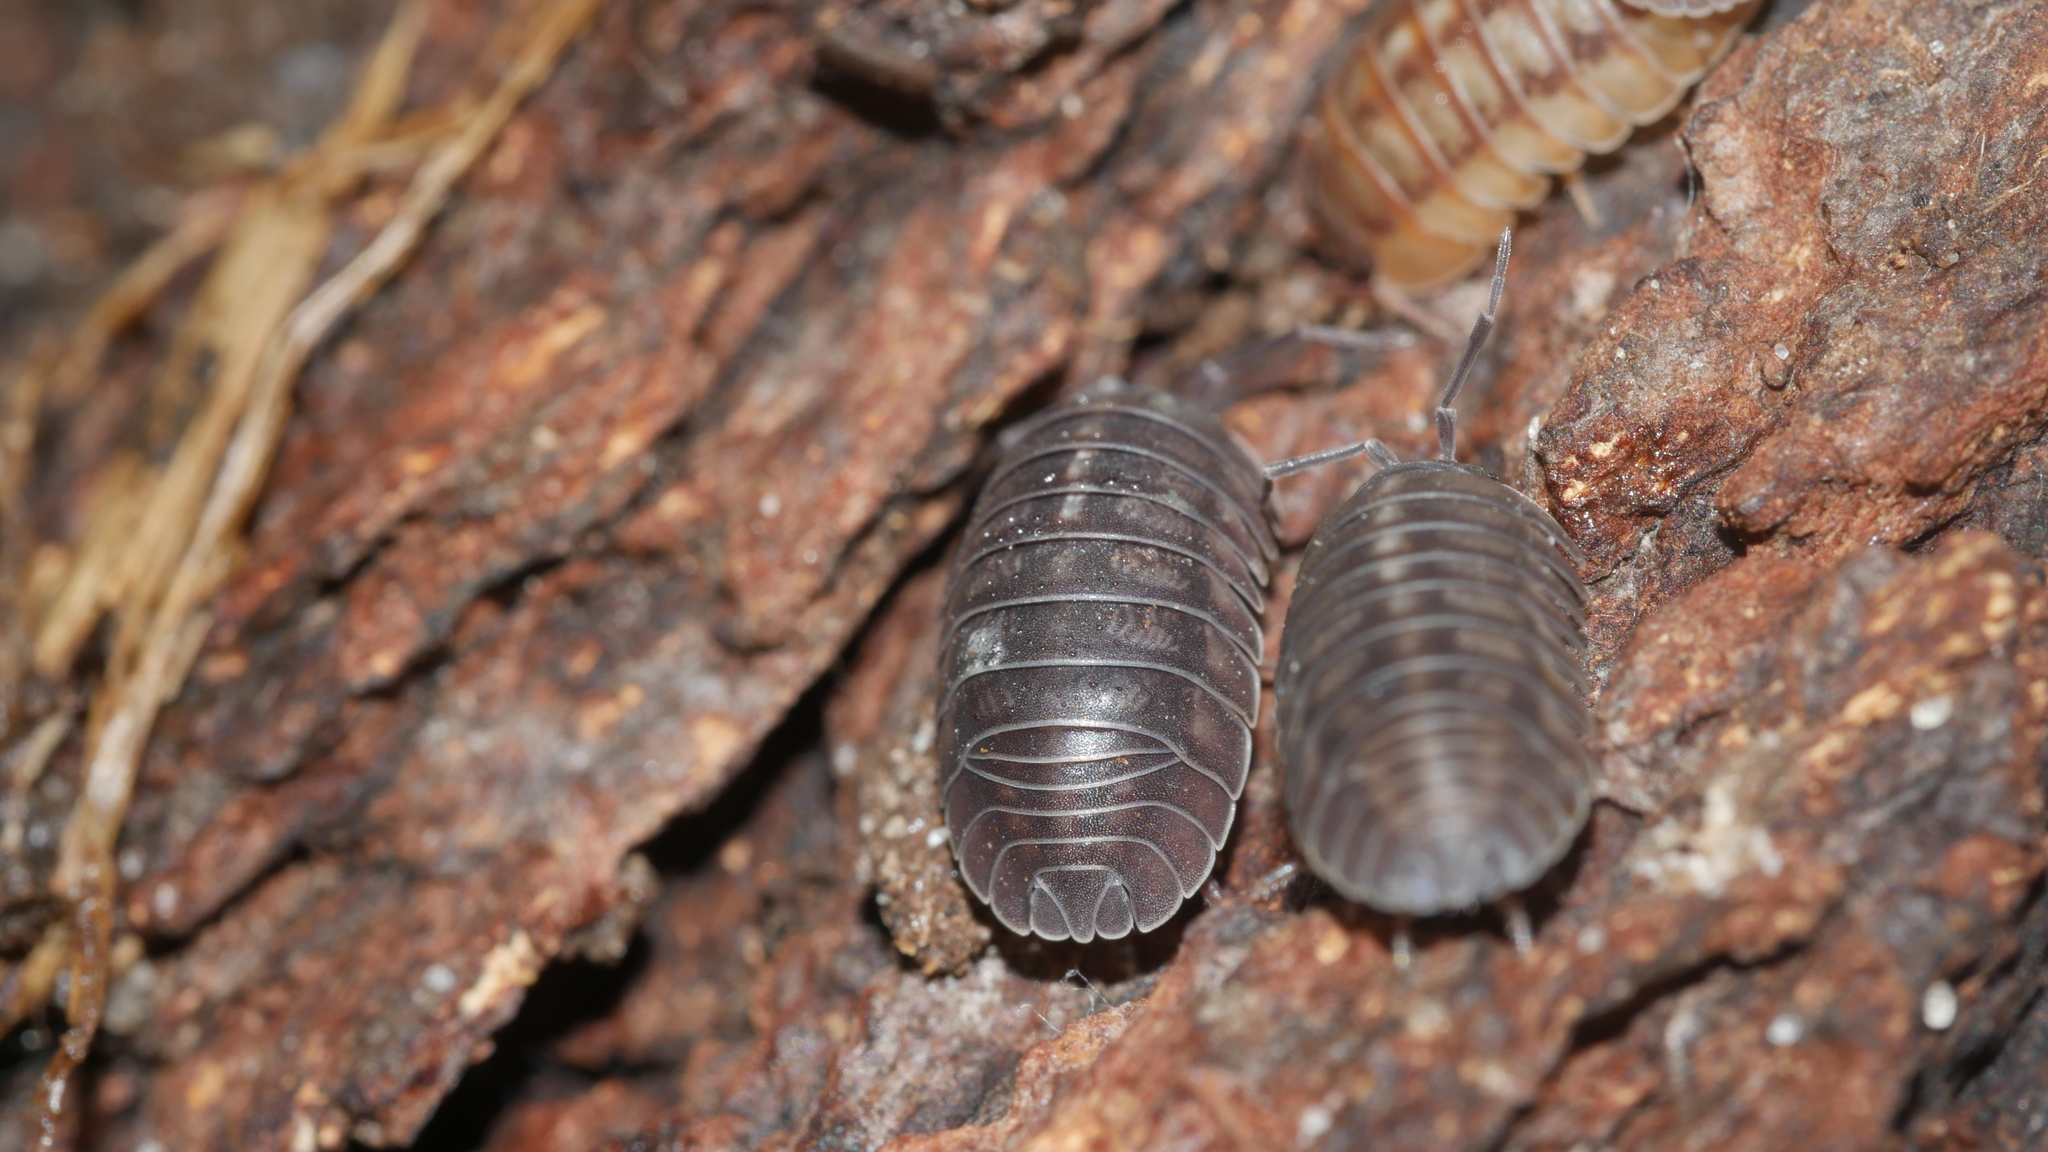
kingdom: Animalia
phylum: Arthropoda
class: Malacostraca
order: Isopoda
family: Armadillidiidae
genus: Armadillidium
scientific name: Armadillidium nasatum
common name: Isopod
